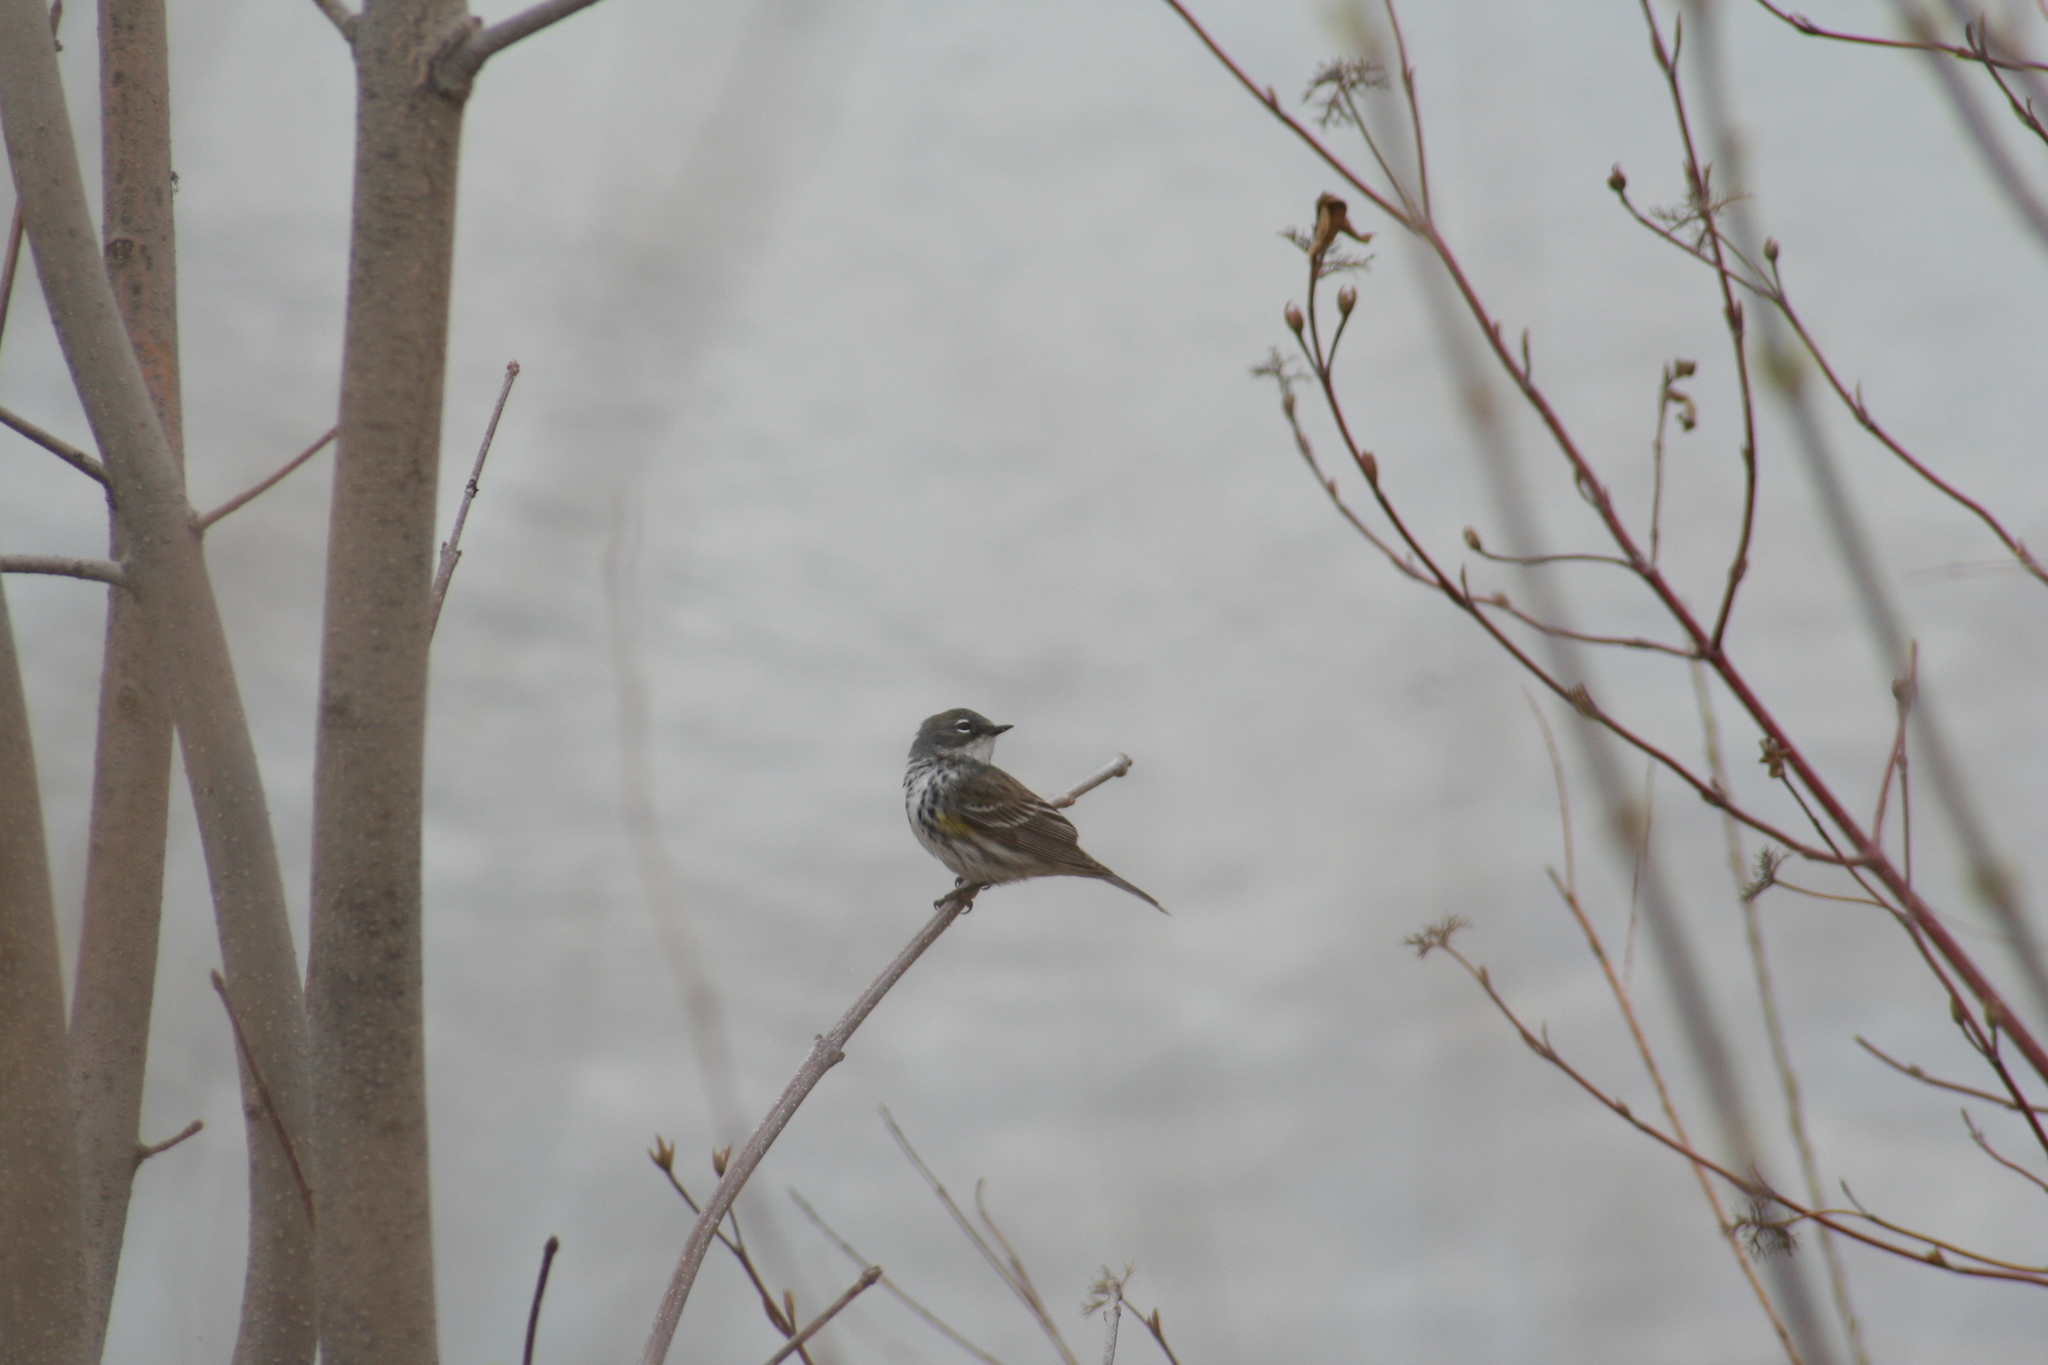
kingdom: Animalia
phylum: Chordata
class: Aves
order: Passeriformes
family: Parulidae
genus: Setophaga
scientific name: Setophaga coronata
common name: Myrtle warbler
